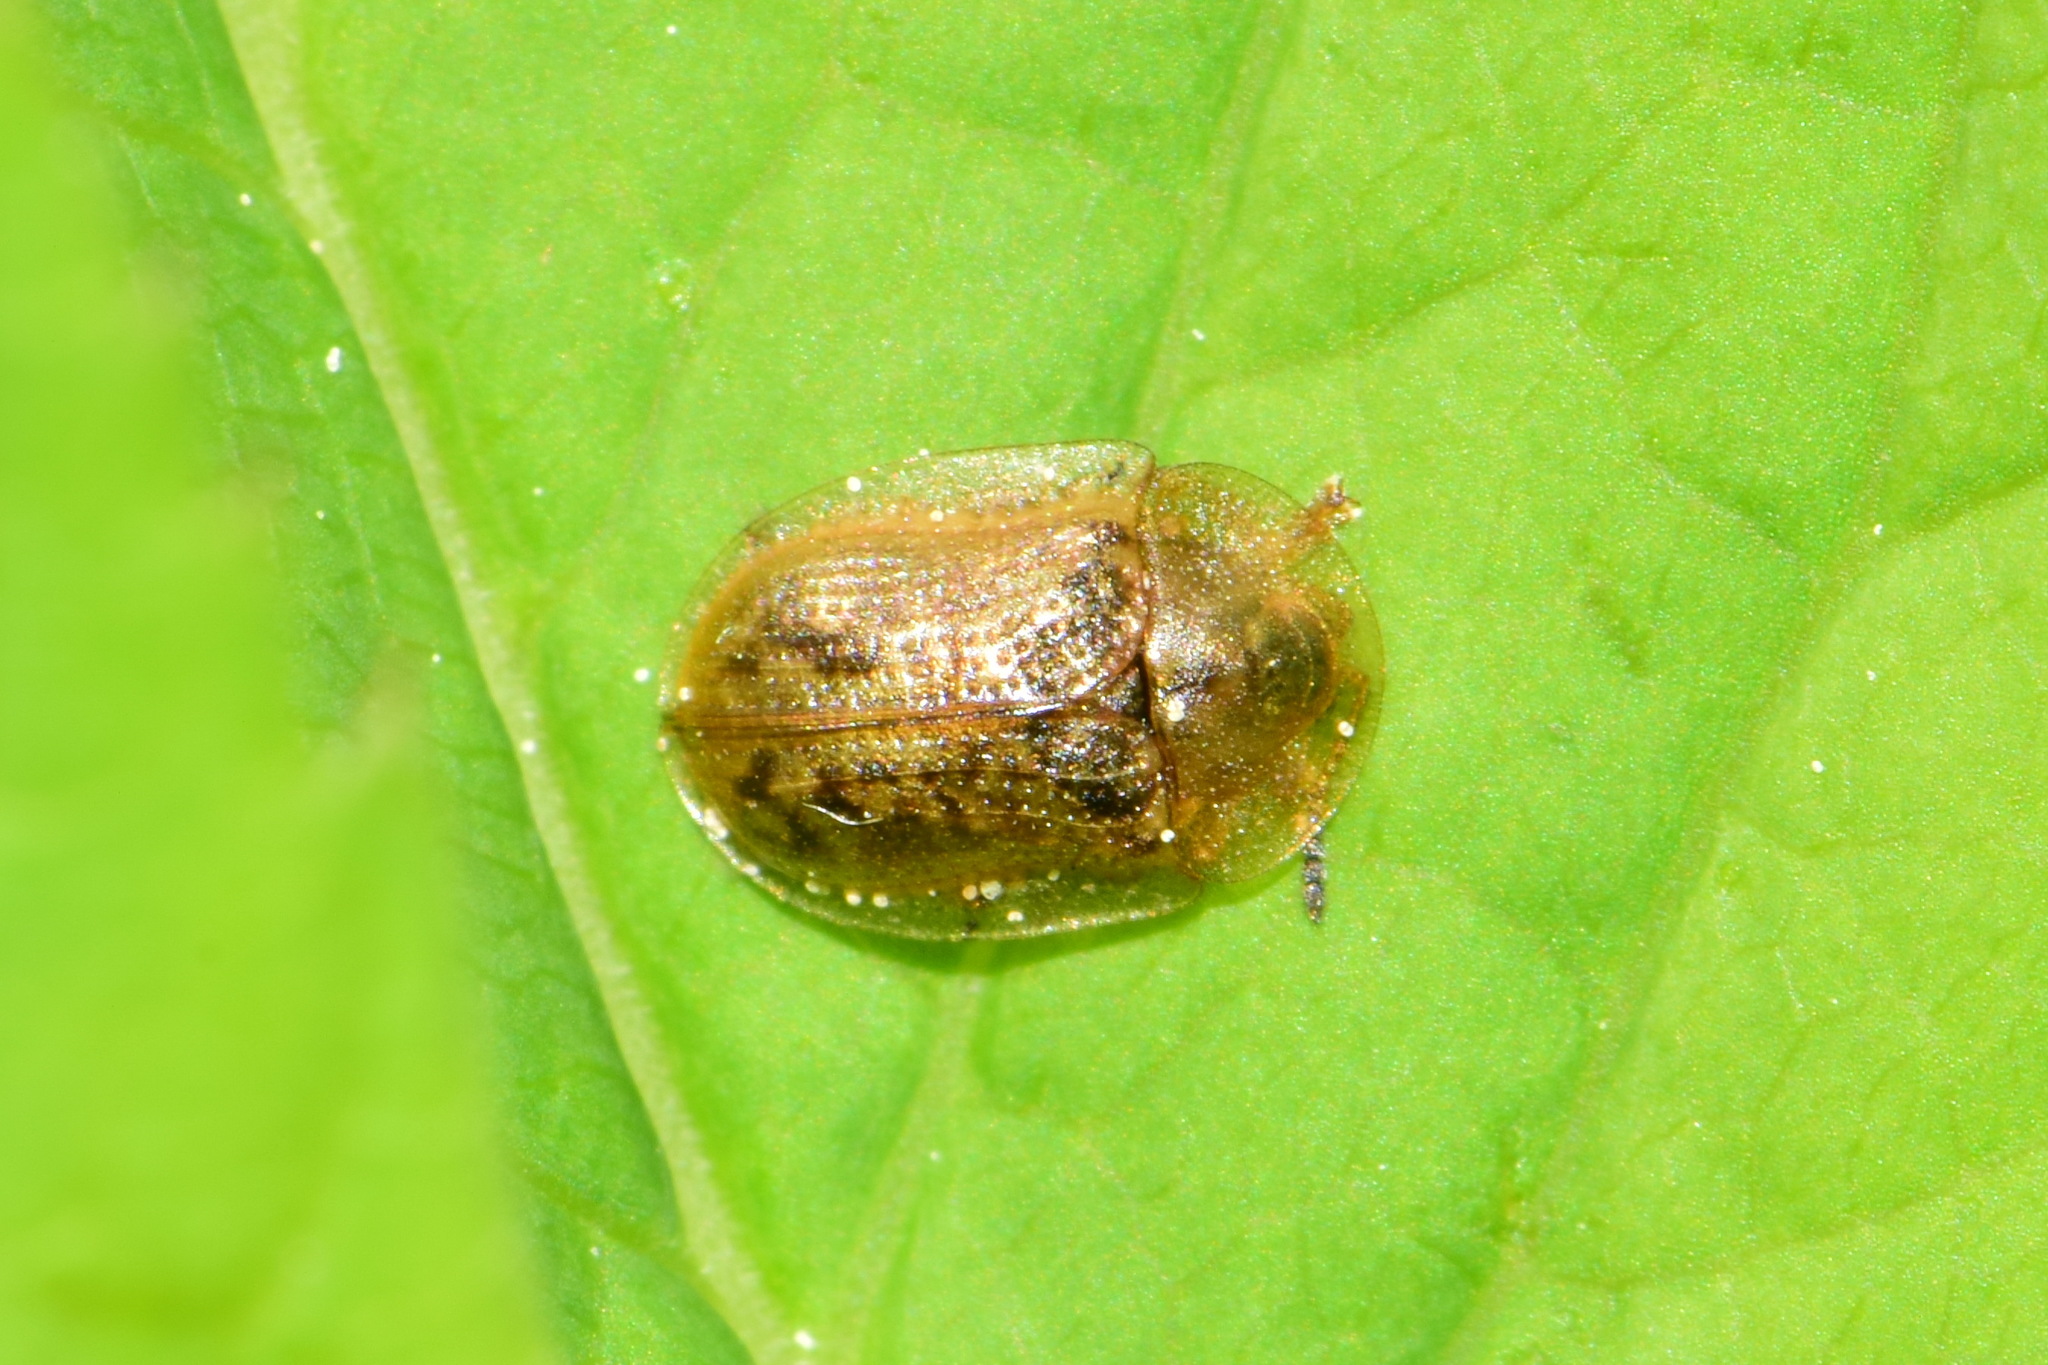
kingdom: Animalia
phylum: Arthropoda
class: Insecta
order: Coleoptera
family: Chrysomelidae
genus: Cassida
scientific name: Cassida flaveola
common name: Pale tortoise beetle
